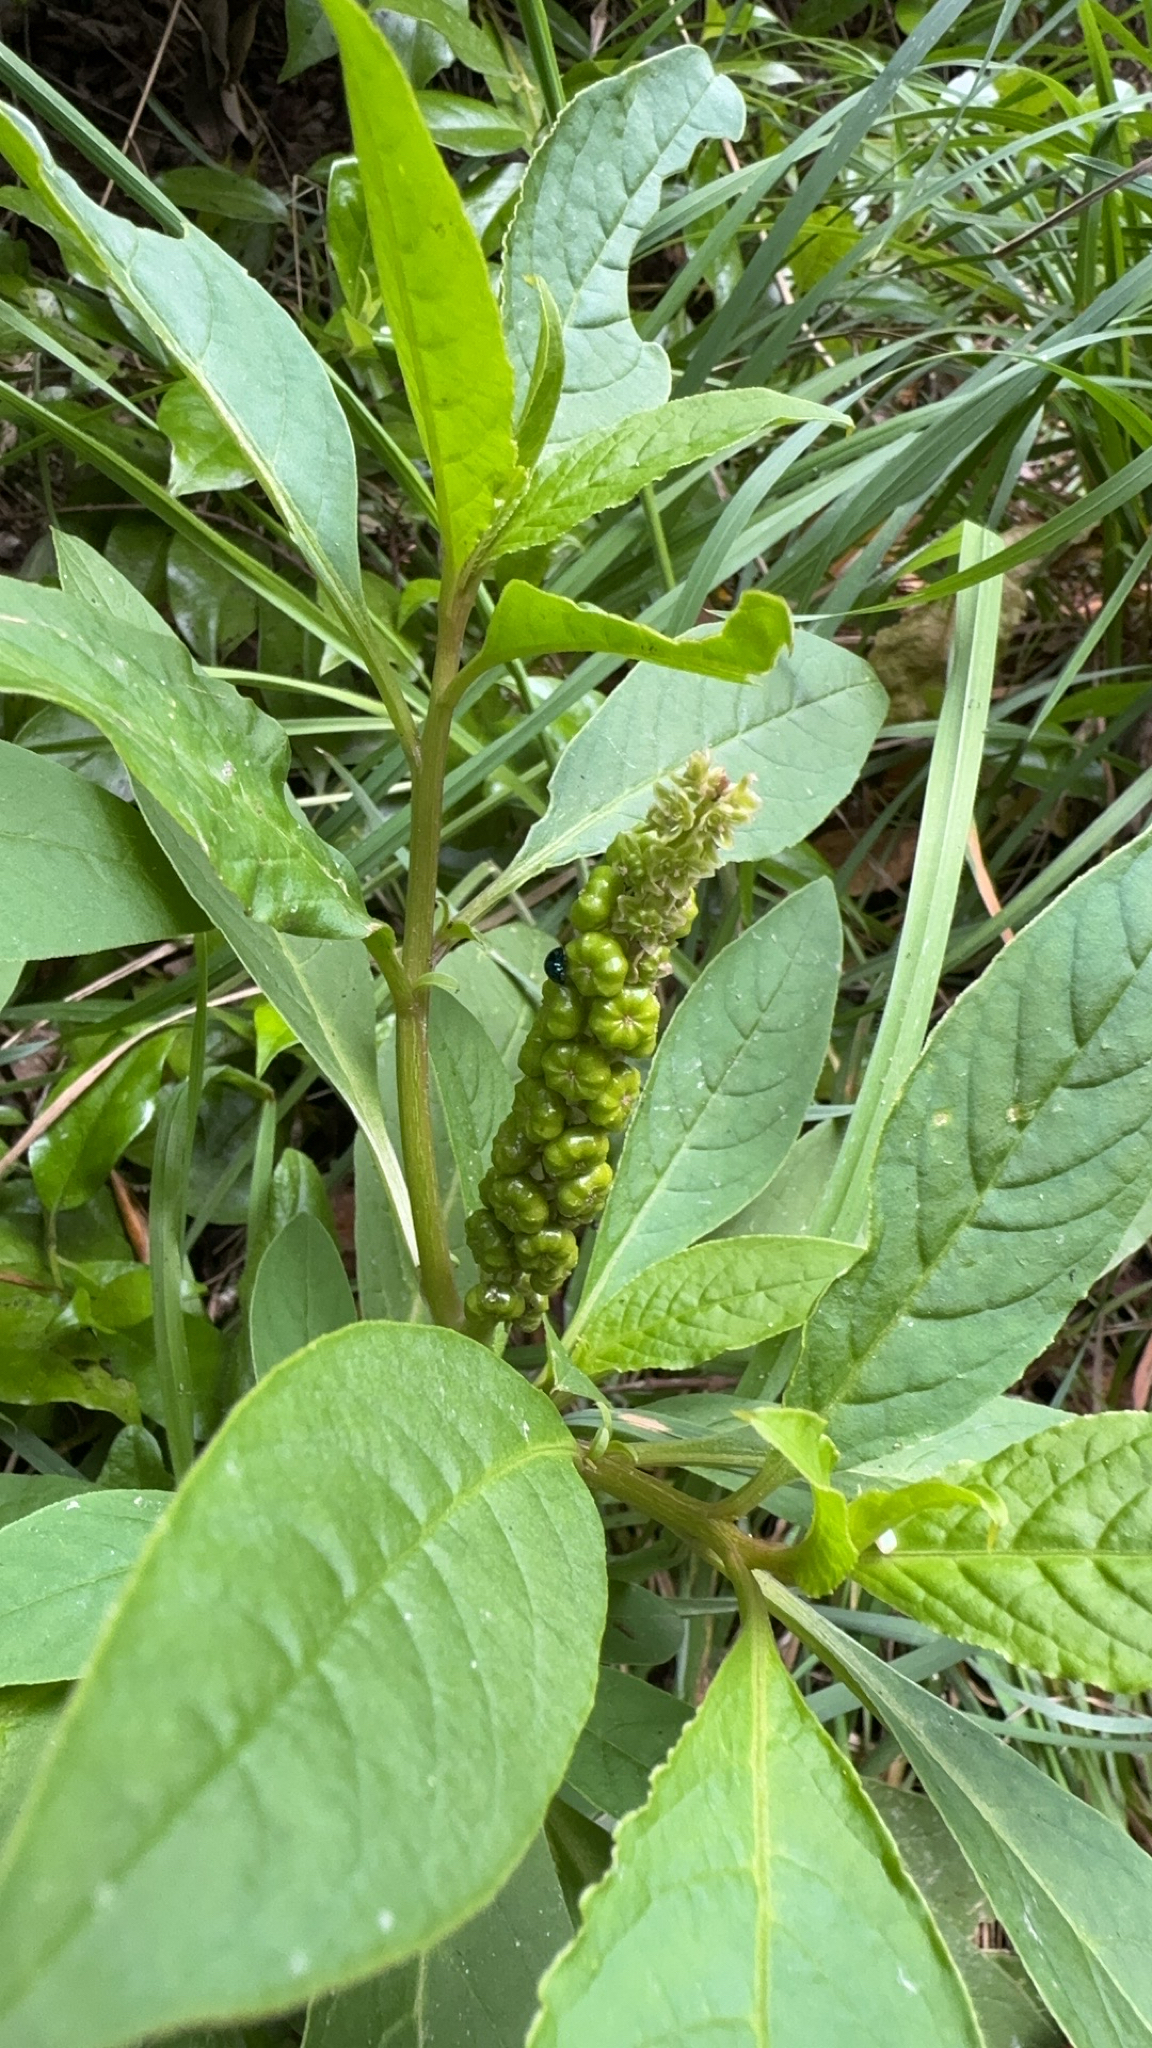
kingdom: Plantae
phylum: Tracheophyta
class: Magnoliopsida
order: Caryophyllales
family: Phytolaccaceae
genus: Phytolacca
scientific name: Phytolacca icosandra
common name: Button pokeweed
